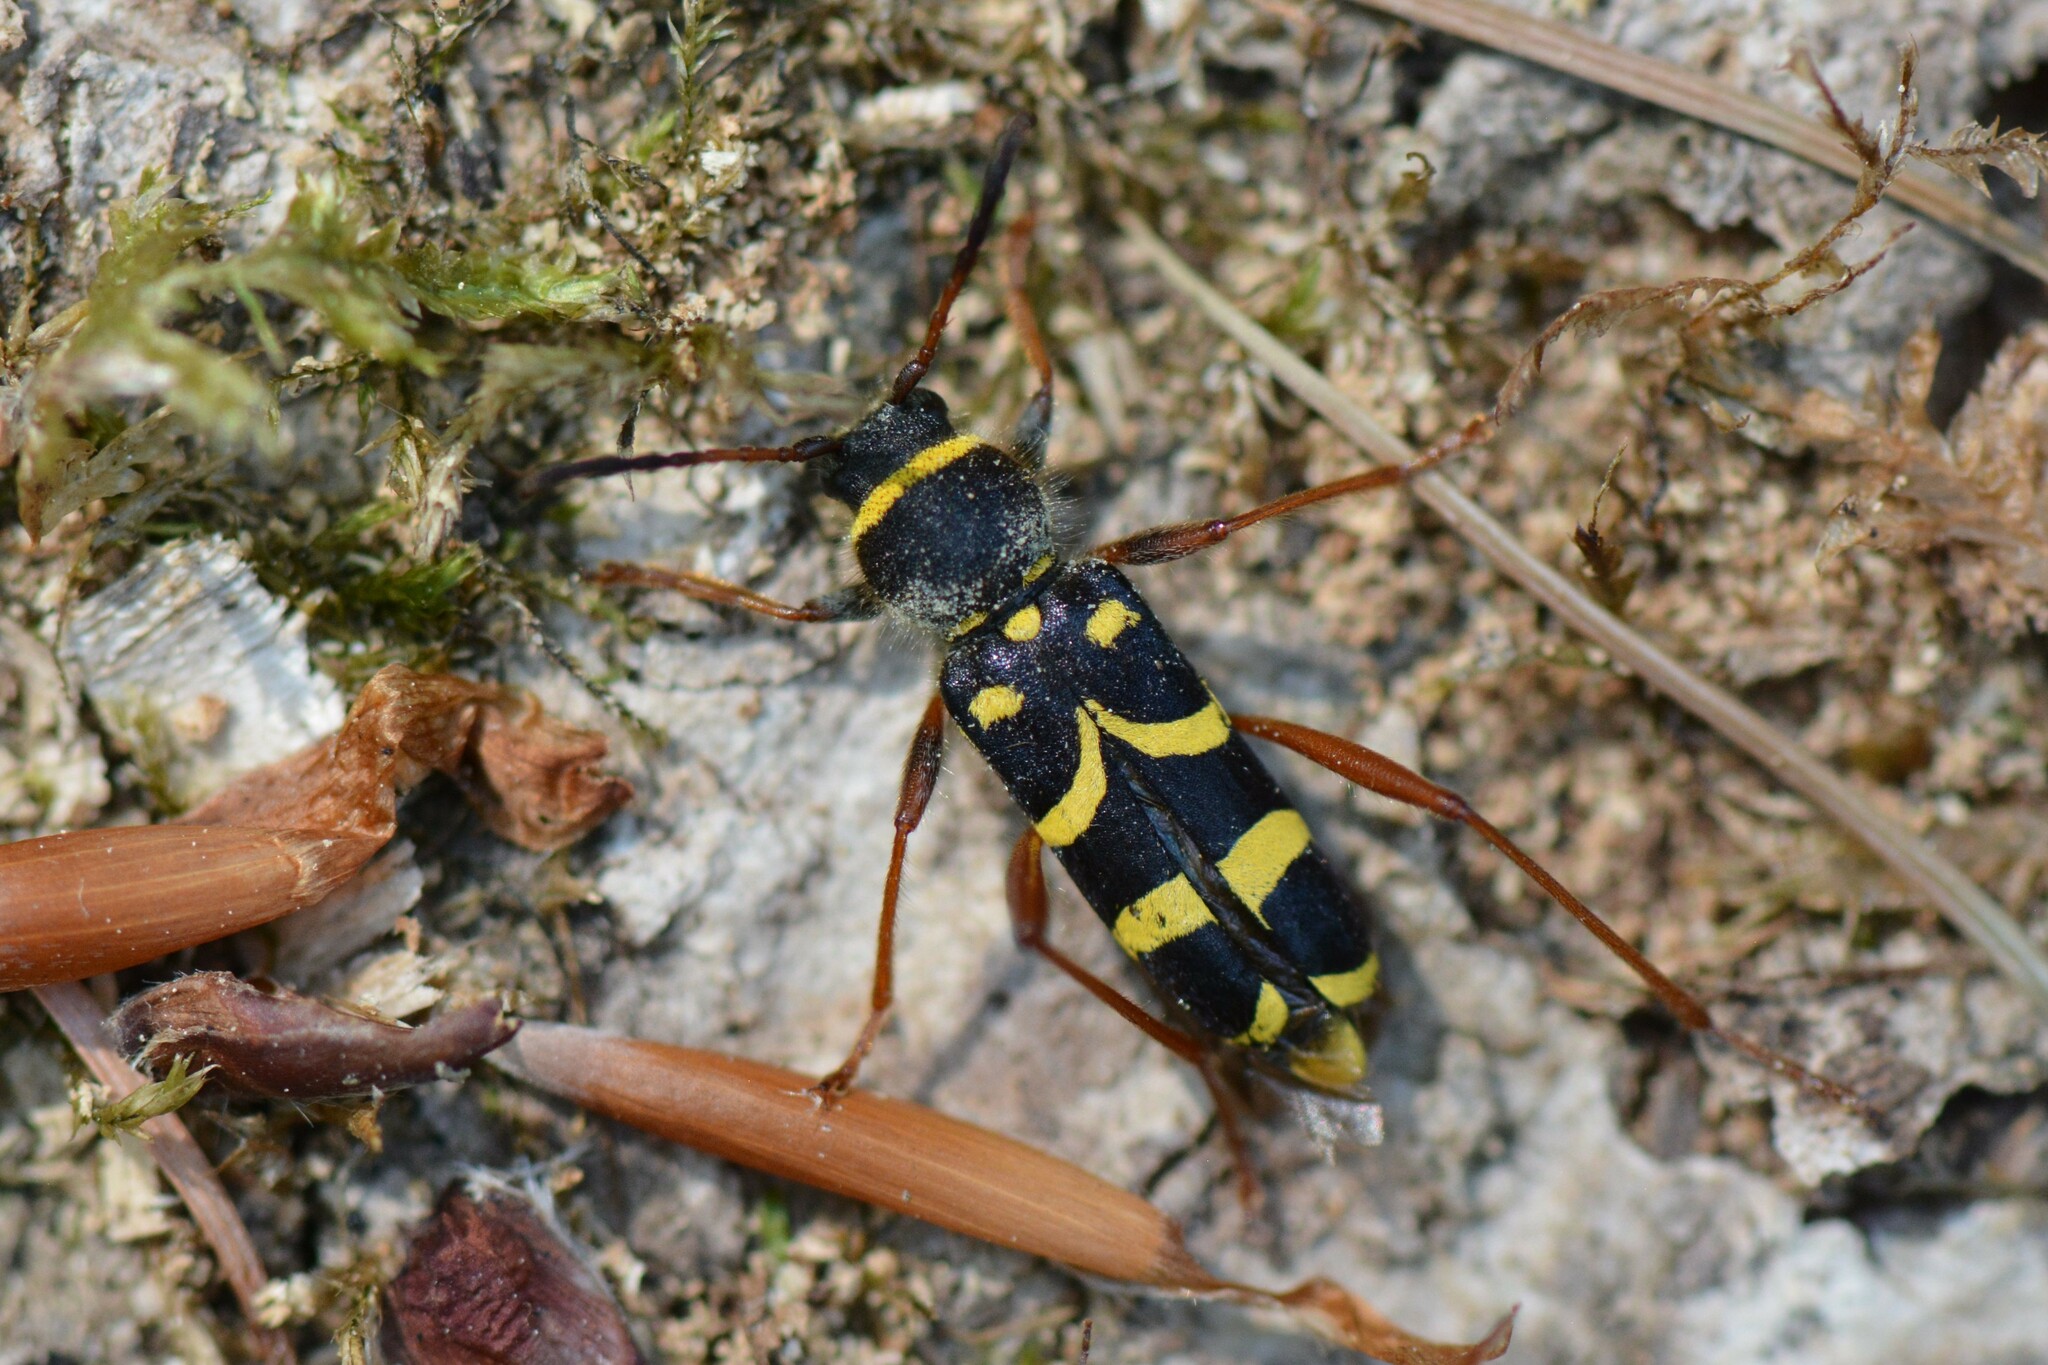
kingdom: Animalia
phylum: Arthropoda
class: Insecta
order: Coleoptera
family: Cerambycidae
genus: Clytus
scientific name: Clytus arietis
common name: Wasp beetle
